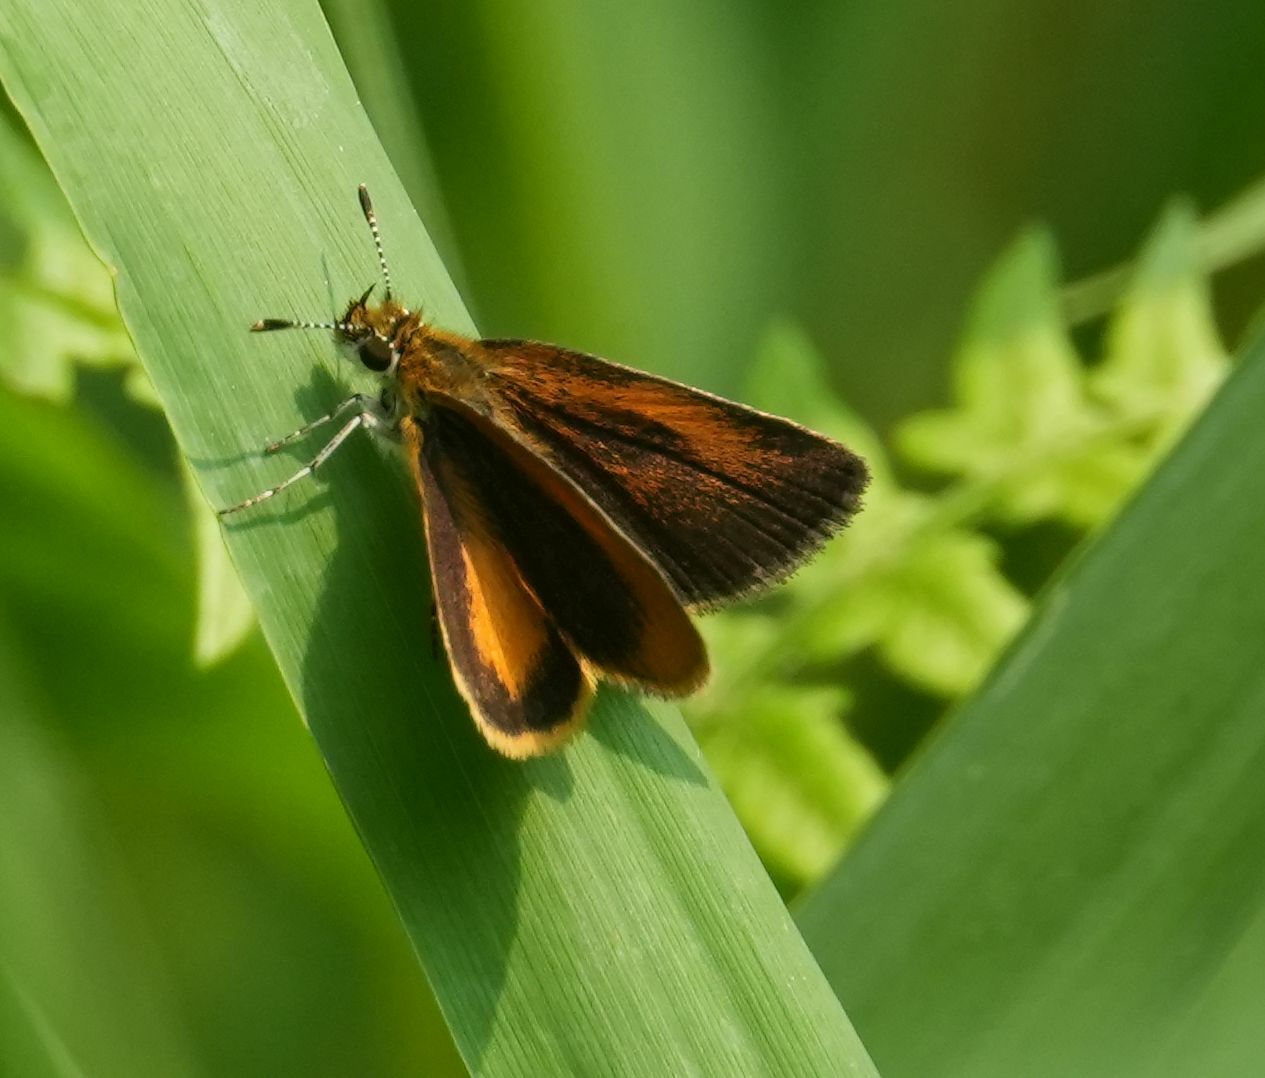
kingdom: Animalia
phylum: Arthropoda
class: Insecta
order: Lepidoptera
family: Hesperiidae
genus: Ancyloxypha
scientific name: Ancyloxypha numitor
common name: Least skipper
